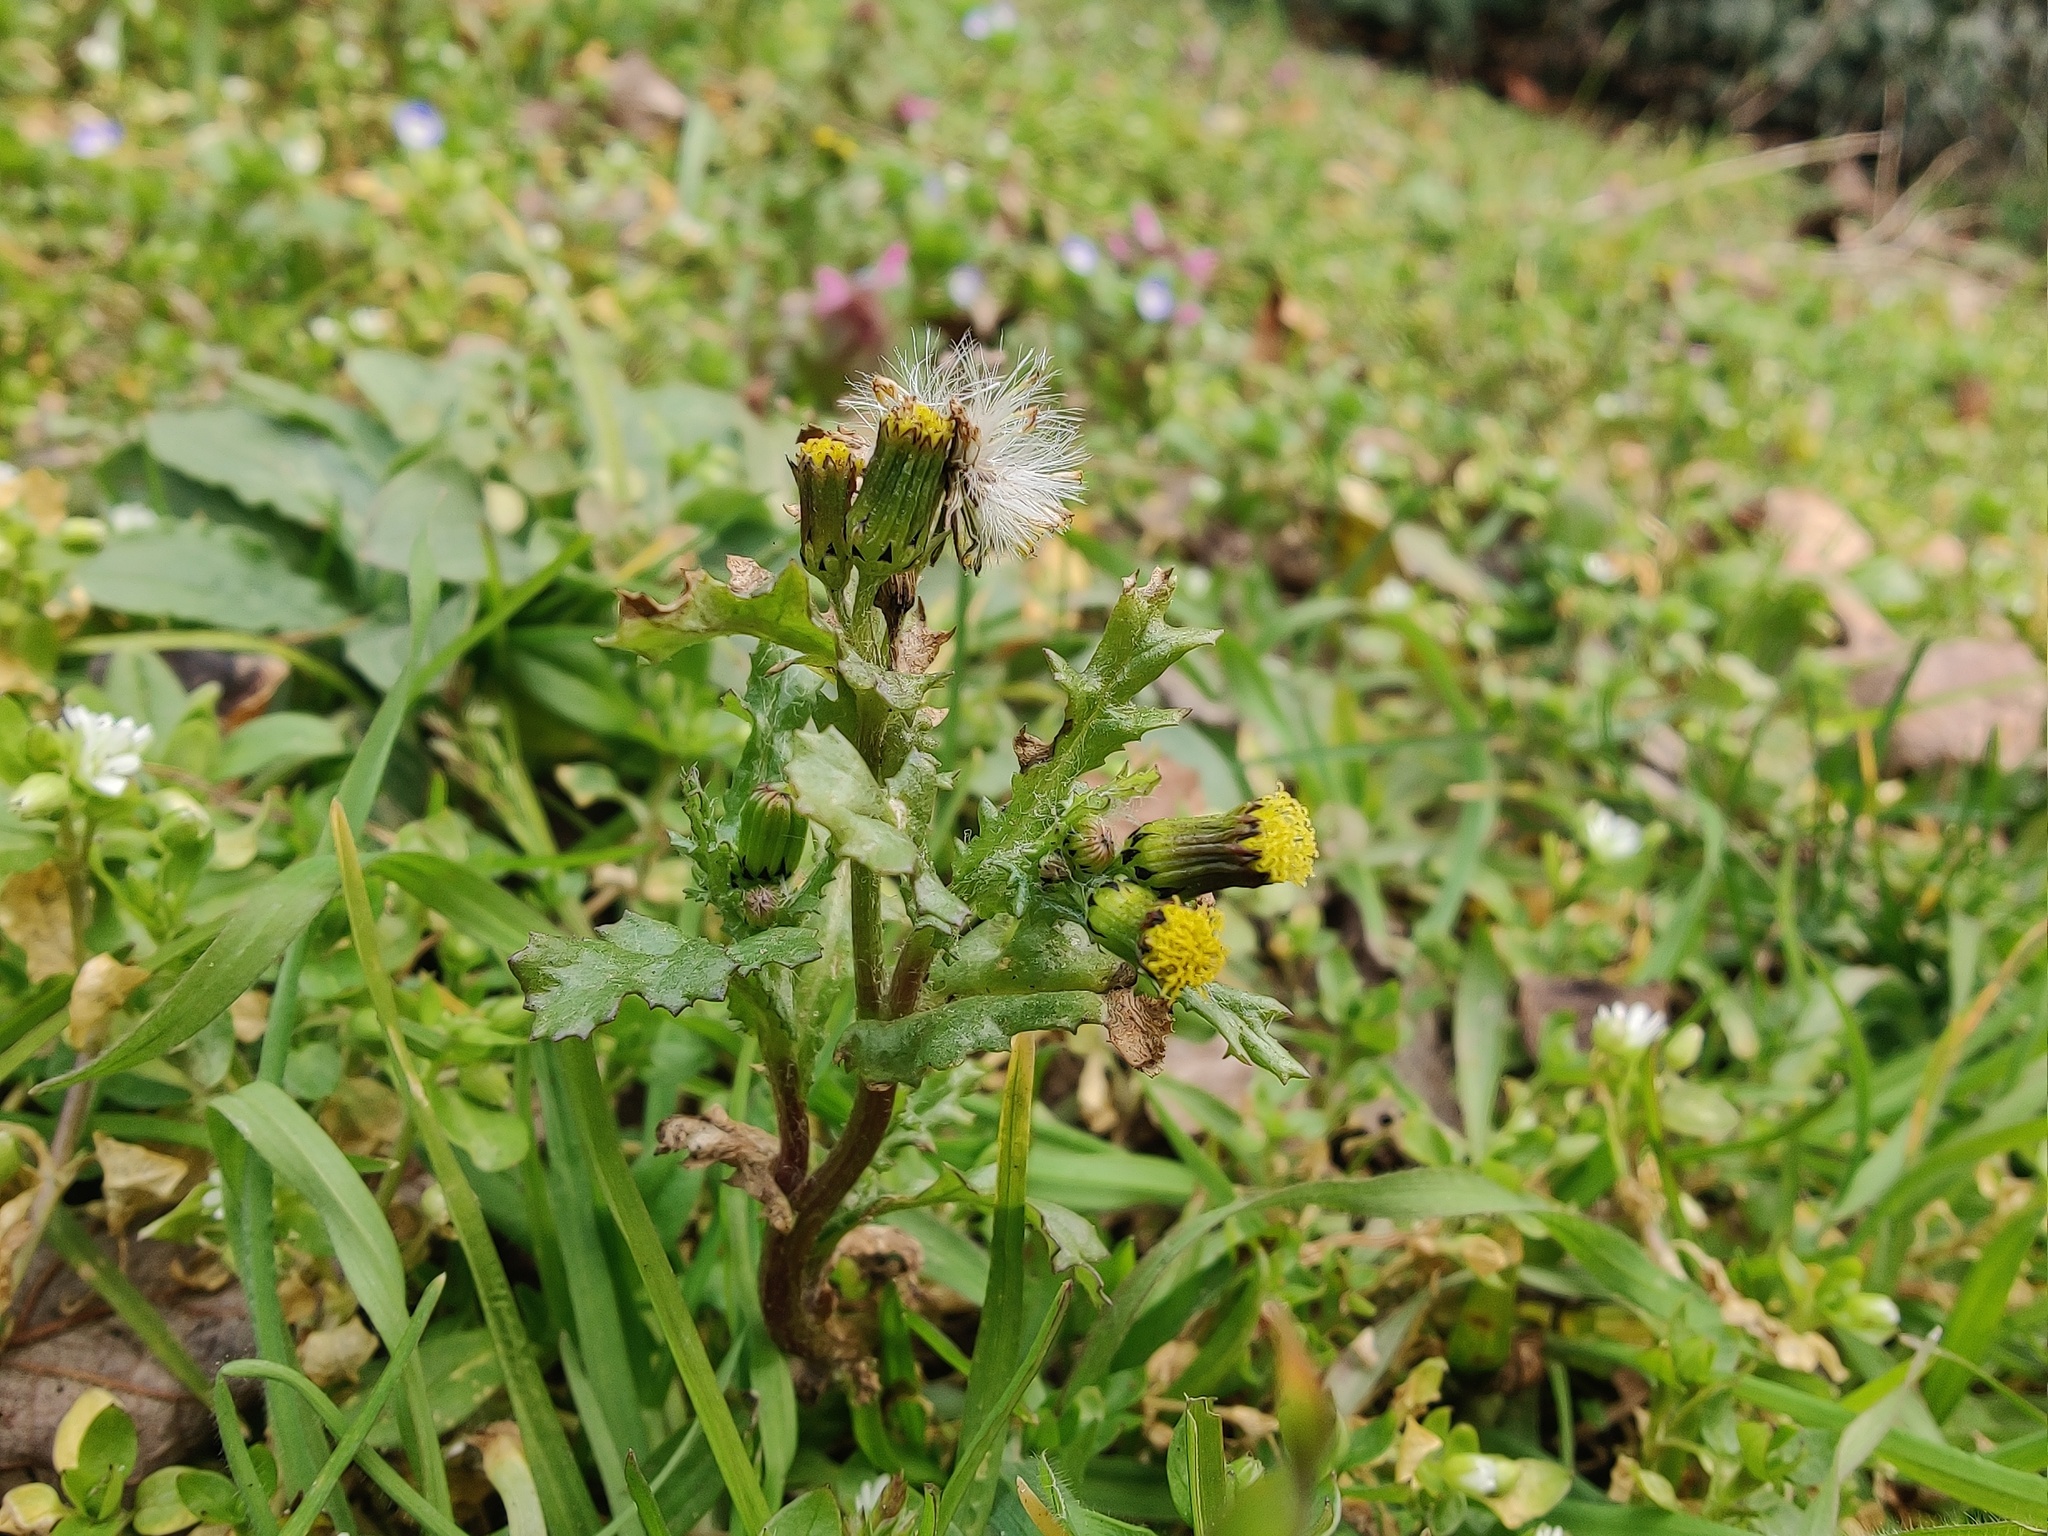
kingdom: Plantae
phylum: Tracheophyta
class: Magnoliopsida
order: Asterales
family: Asteraceae
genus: Senecio
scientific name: Senecio vulgaris
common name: Old-man-in-the-spring
